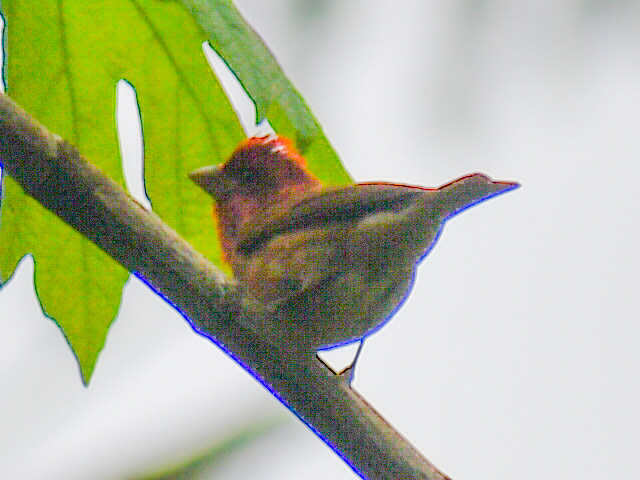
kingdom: Animalia
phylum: Chordata
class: Aves
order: Passeriformes
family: Fringillidae
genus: Haemorhous
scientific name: Haemorhous purpureus
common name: Purple finch
